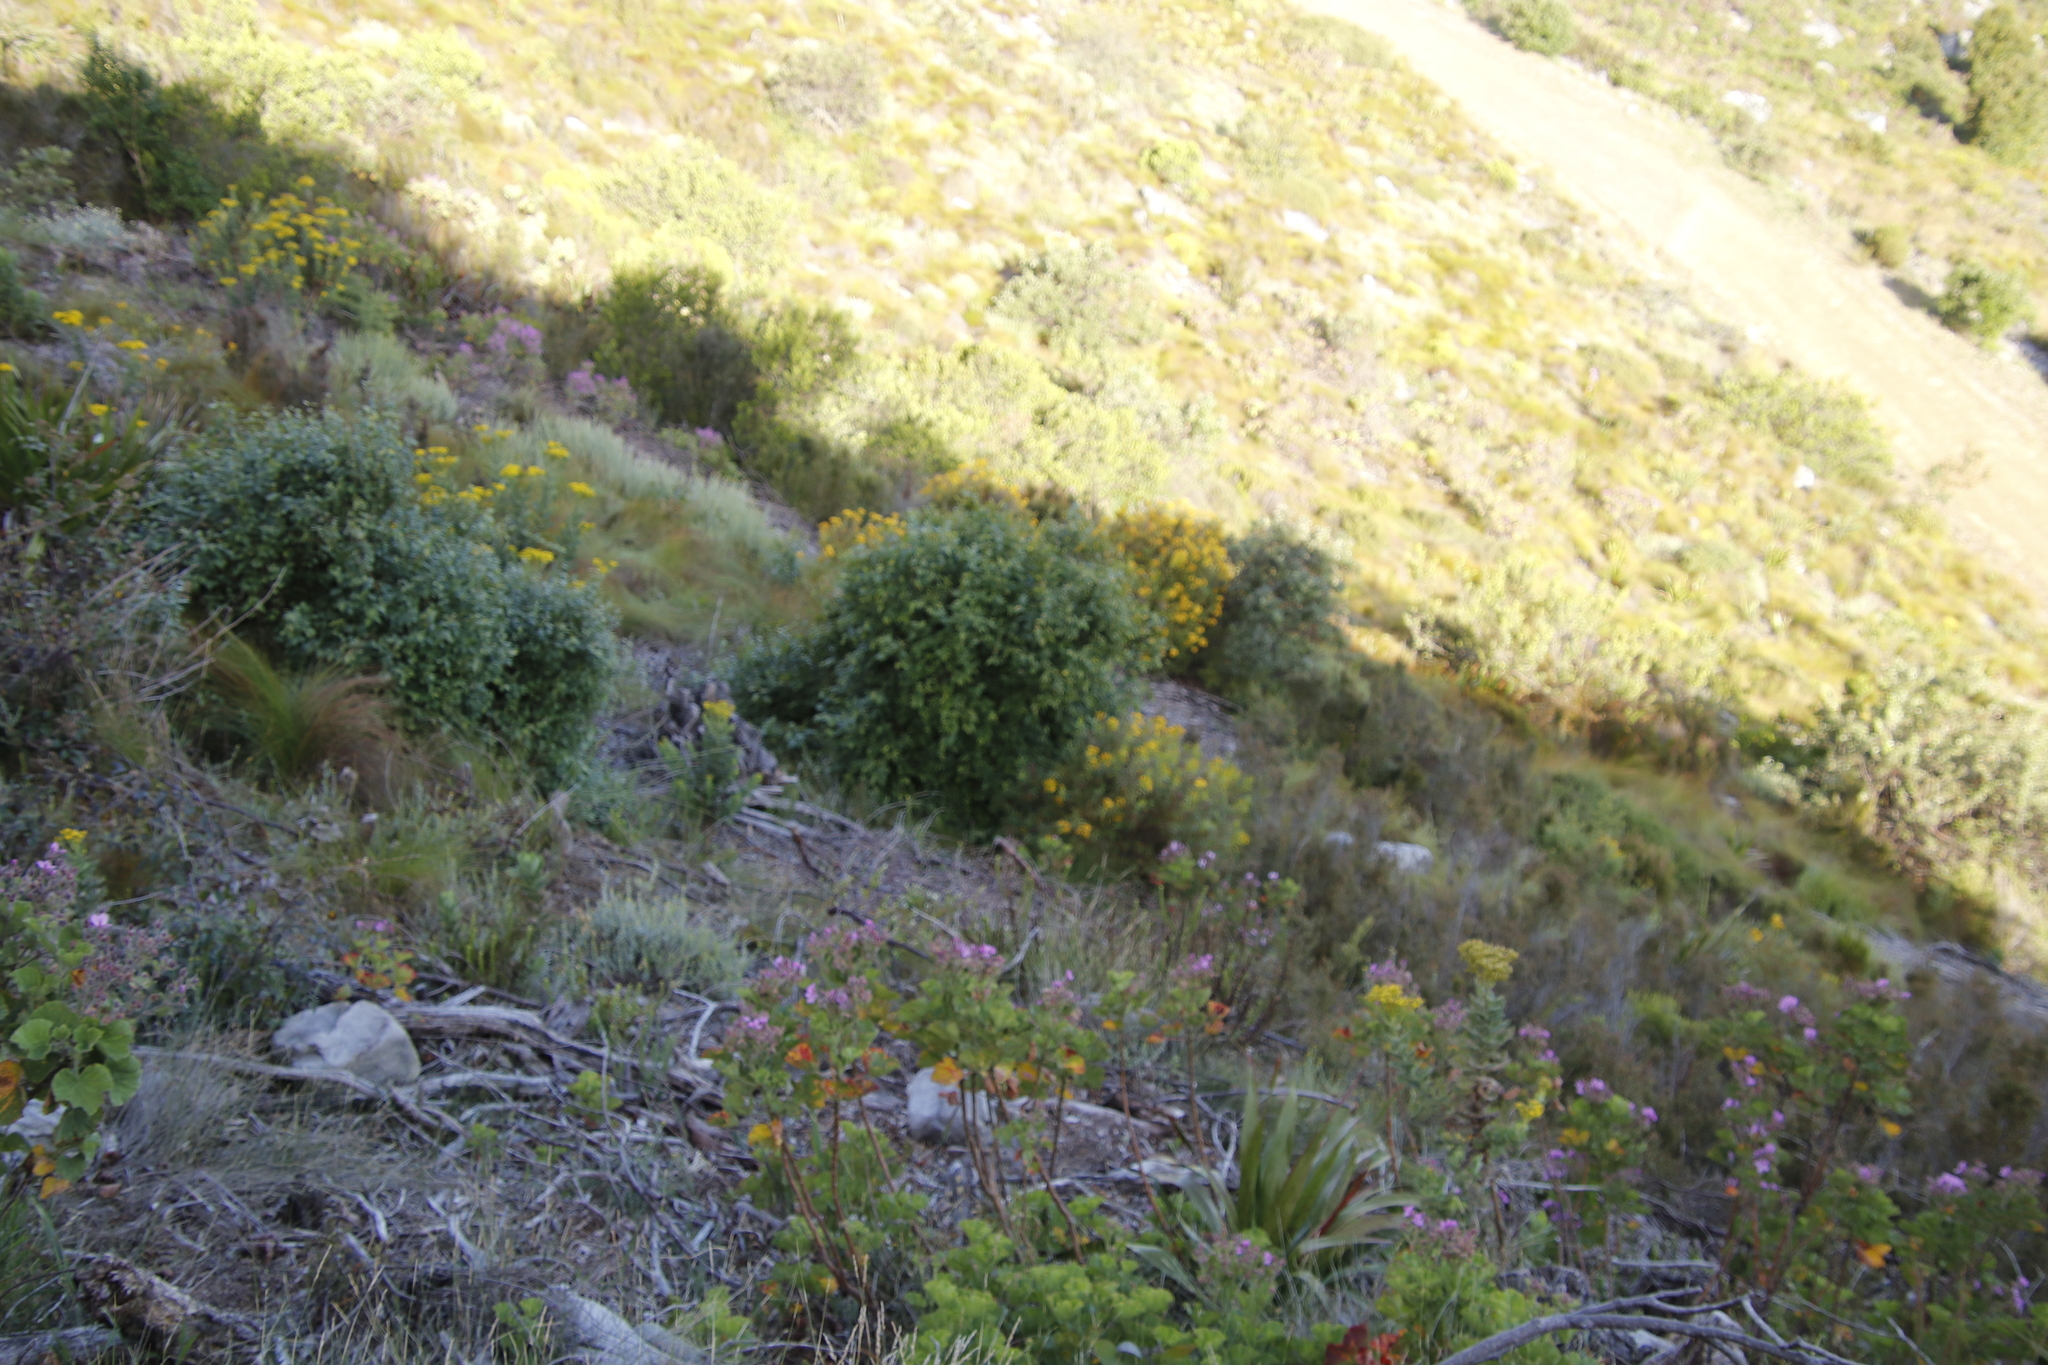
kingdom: Plantae
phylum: Tracheophyta
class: Magnoliopsida
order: Malpighiales
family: Hypericaceae
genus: Hypericum
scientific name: Hypericum canariense
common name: Canary island st. johnswort
